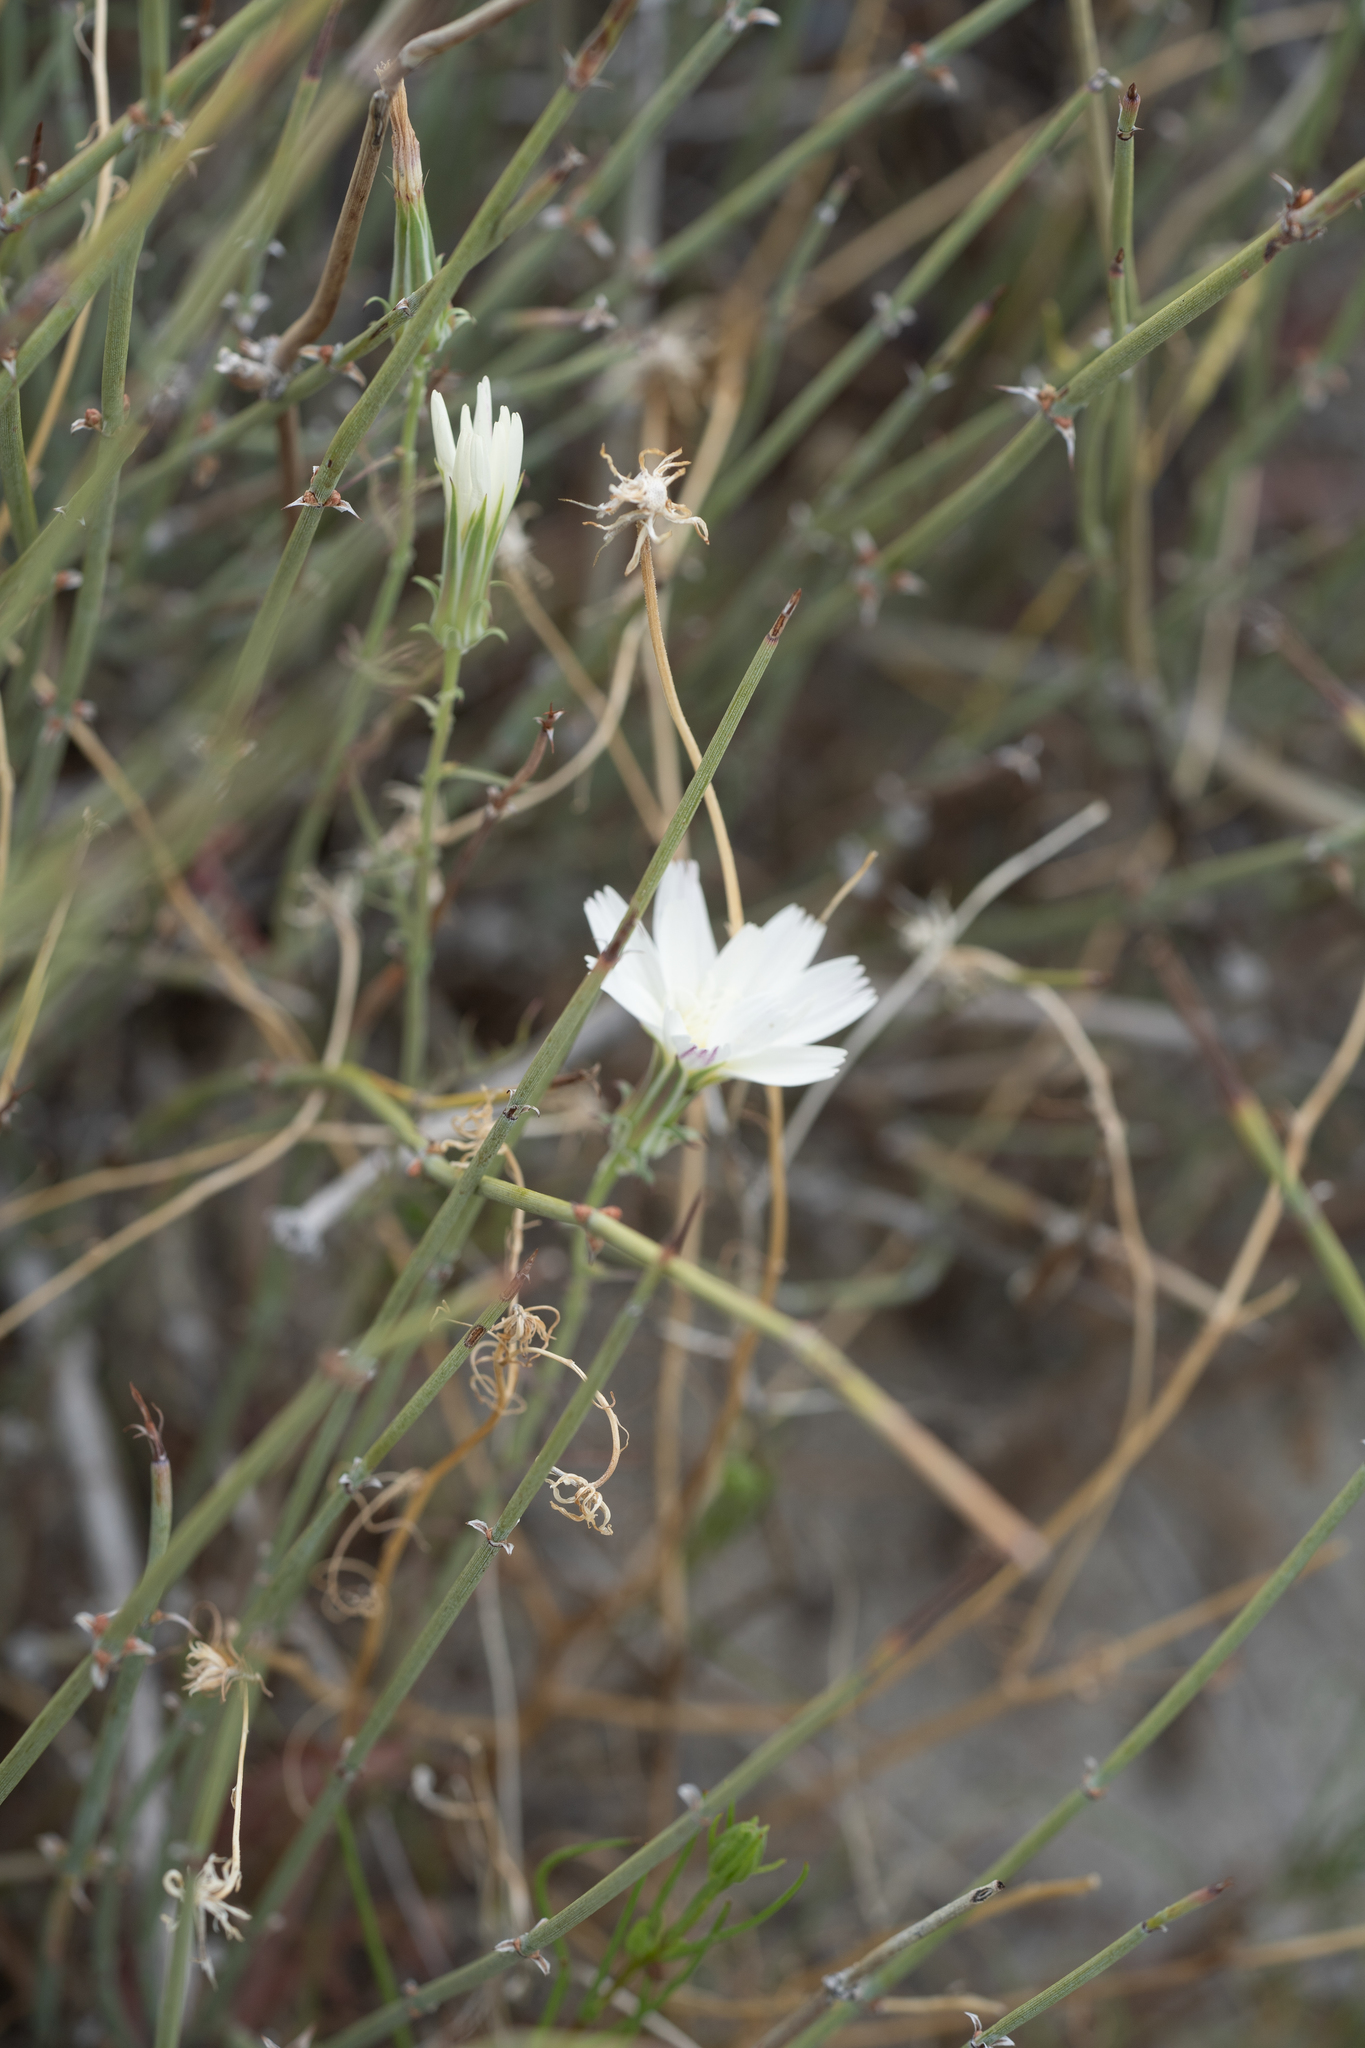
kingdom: Plantae
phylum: Tracheophyta
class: Magnoliopsida
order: Asterales
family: Asteraceae
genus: Rafinesquia
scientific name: Rafinesquia neomexicana
